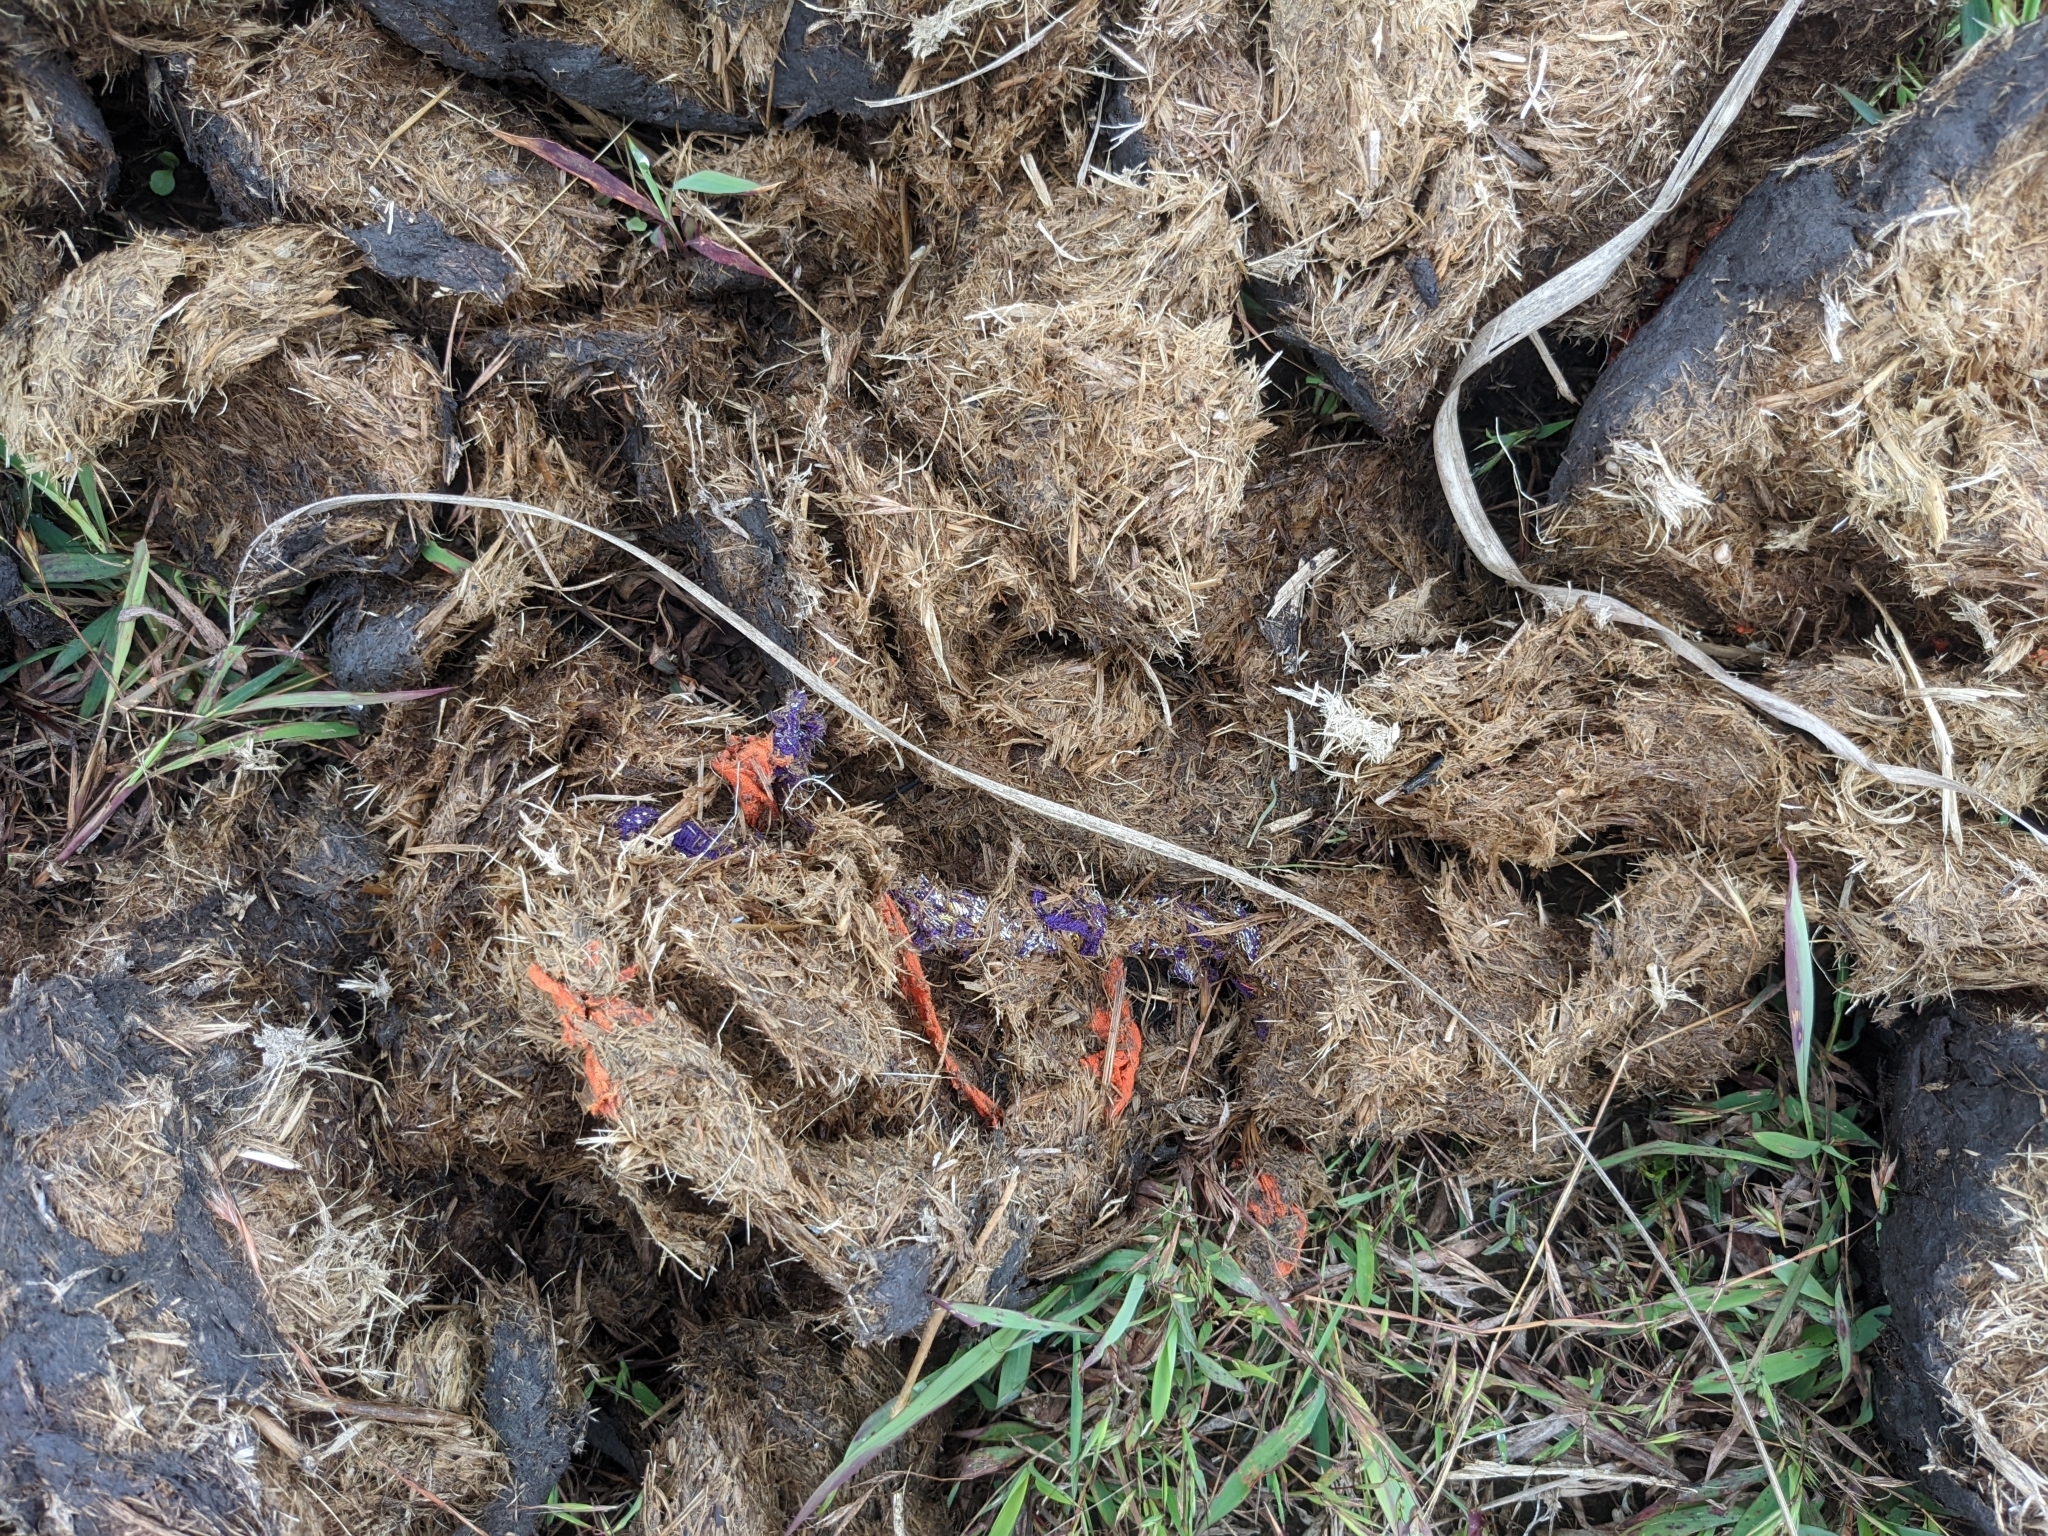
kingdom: Animalia
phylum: Chordata
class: Mammalia
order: Proboscidea
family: Elephantidae
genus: Elephas
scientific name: Elephas maximus
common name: Asian elephant
